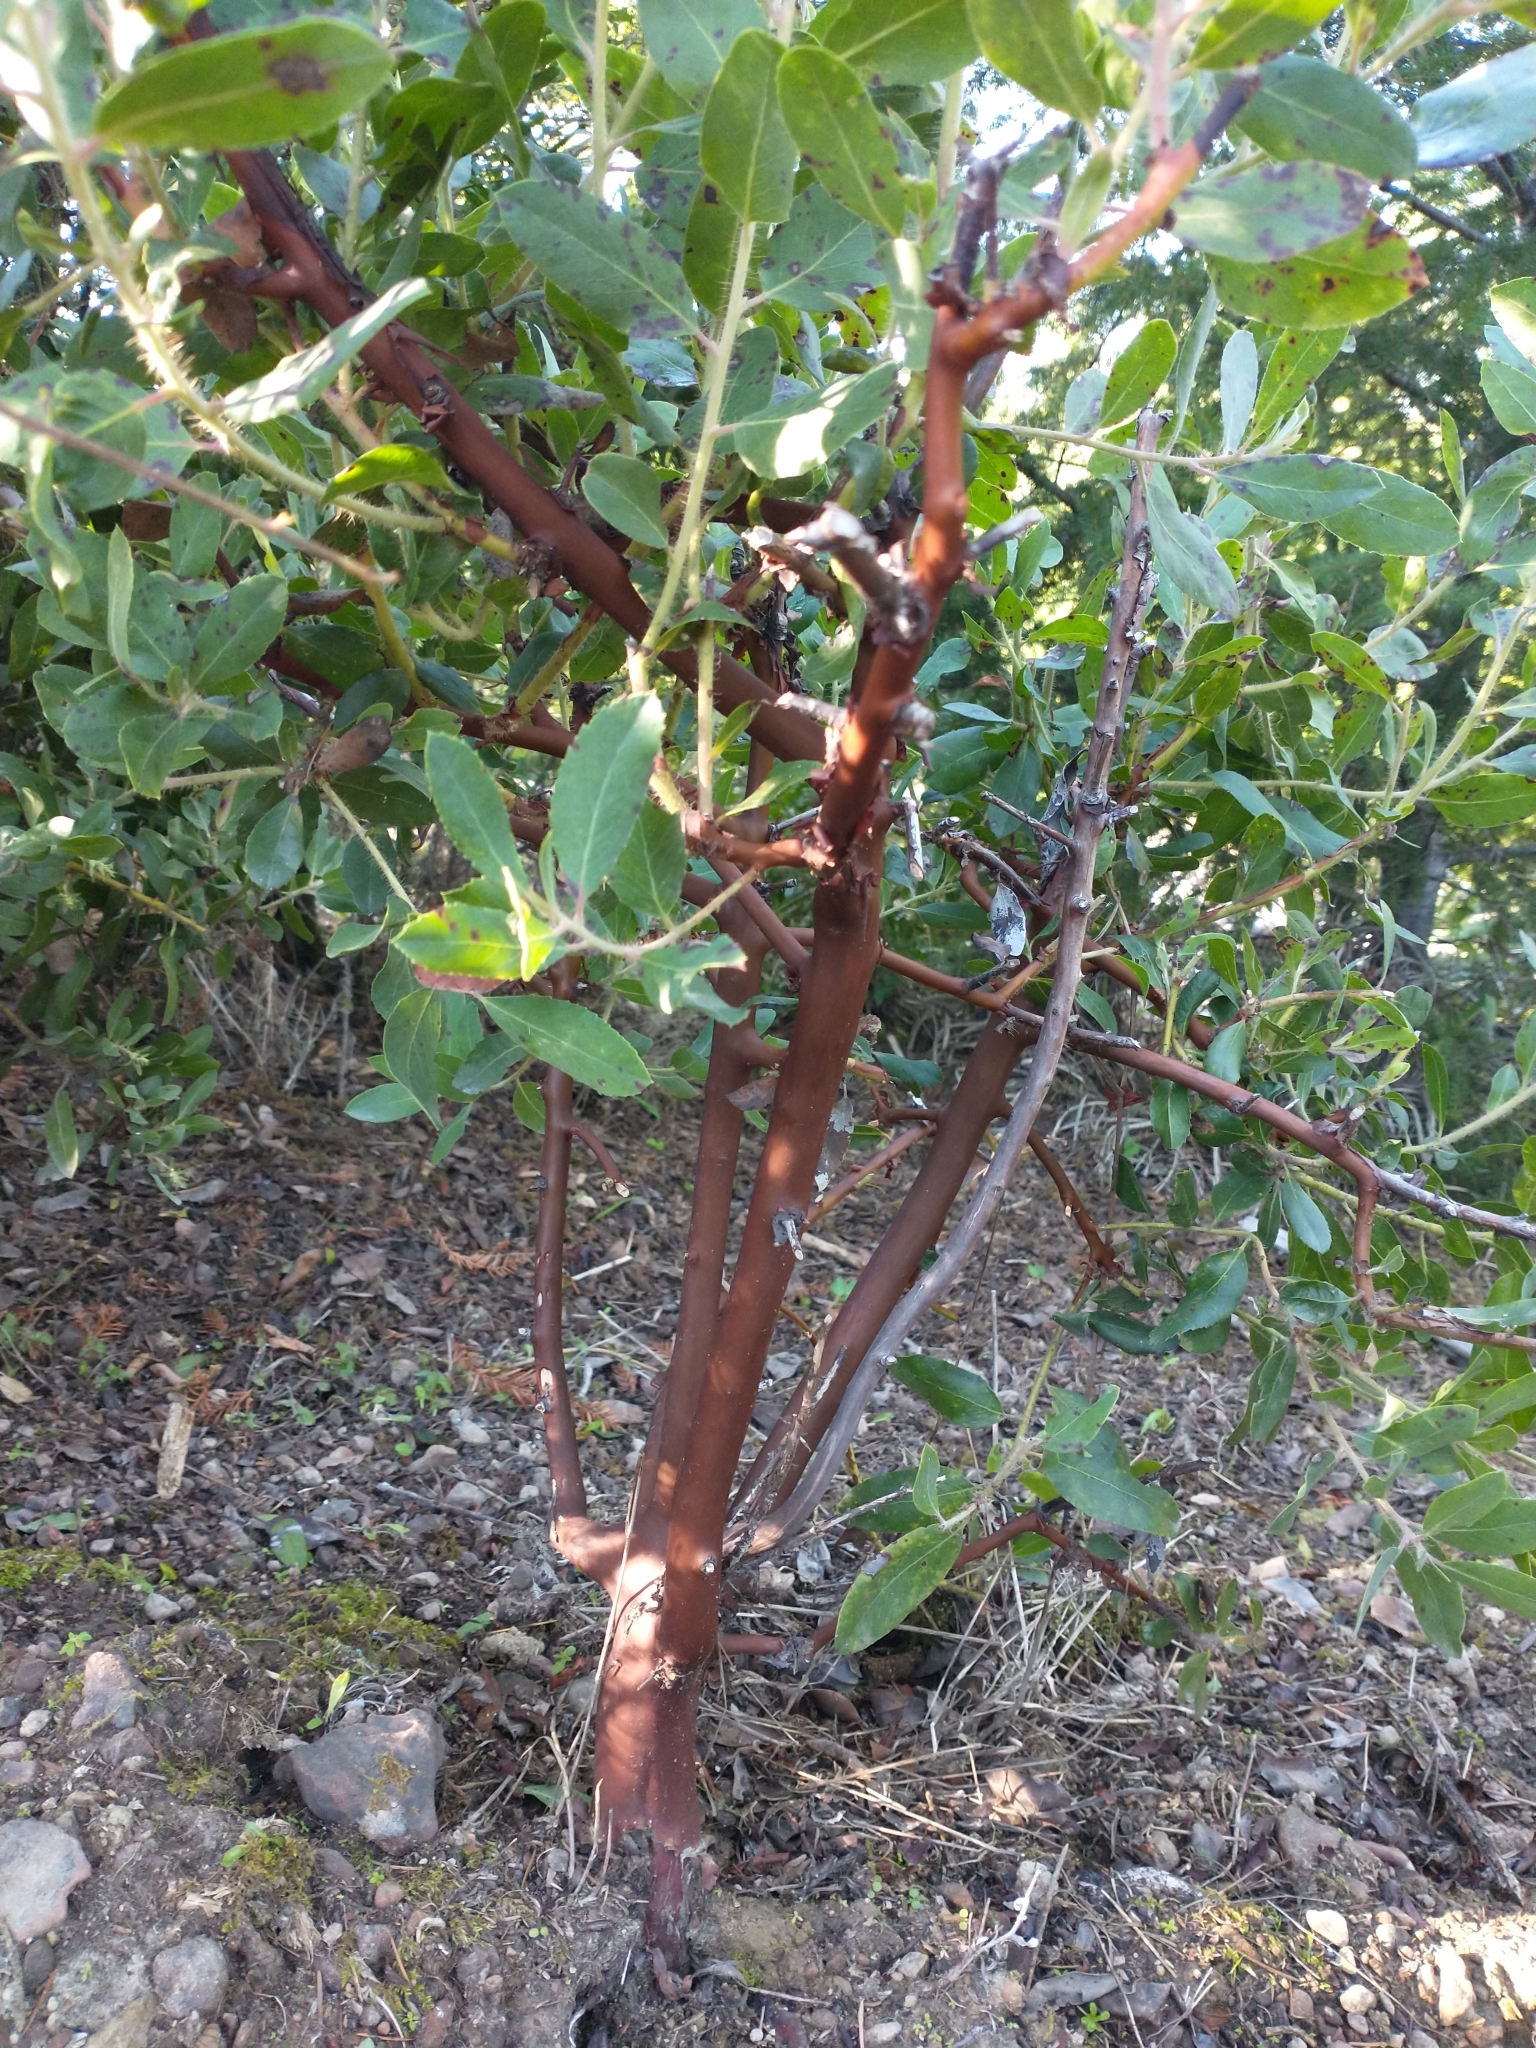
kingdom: Plantae
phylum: Tracheophyta
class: Magnoliopsida
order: Ericales
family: Ericaceae
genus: Arctostaphylos
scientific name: Arctostaphylos columbiana
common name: Bristly bearberry
